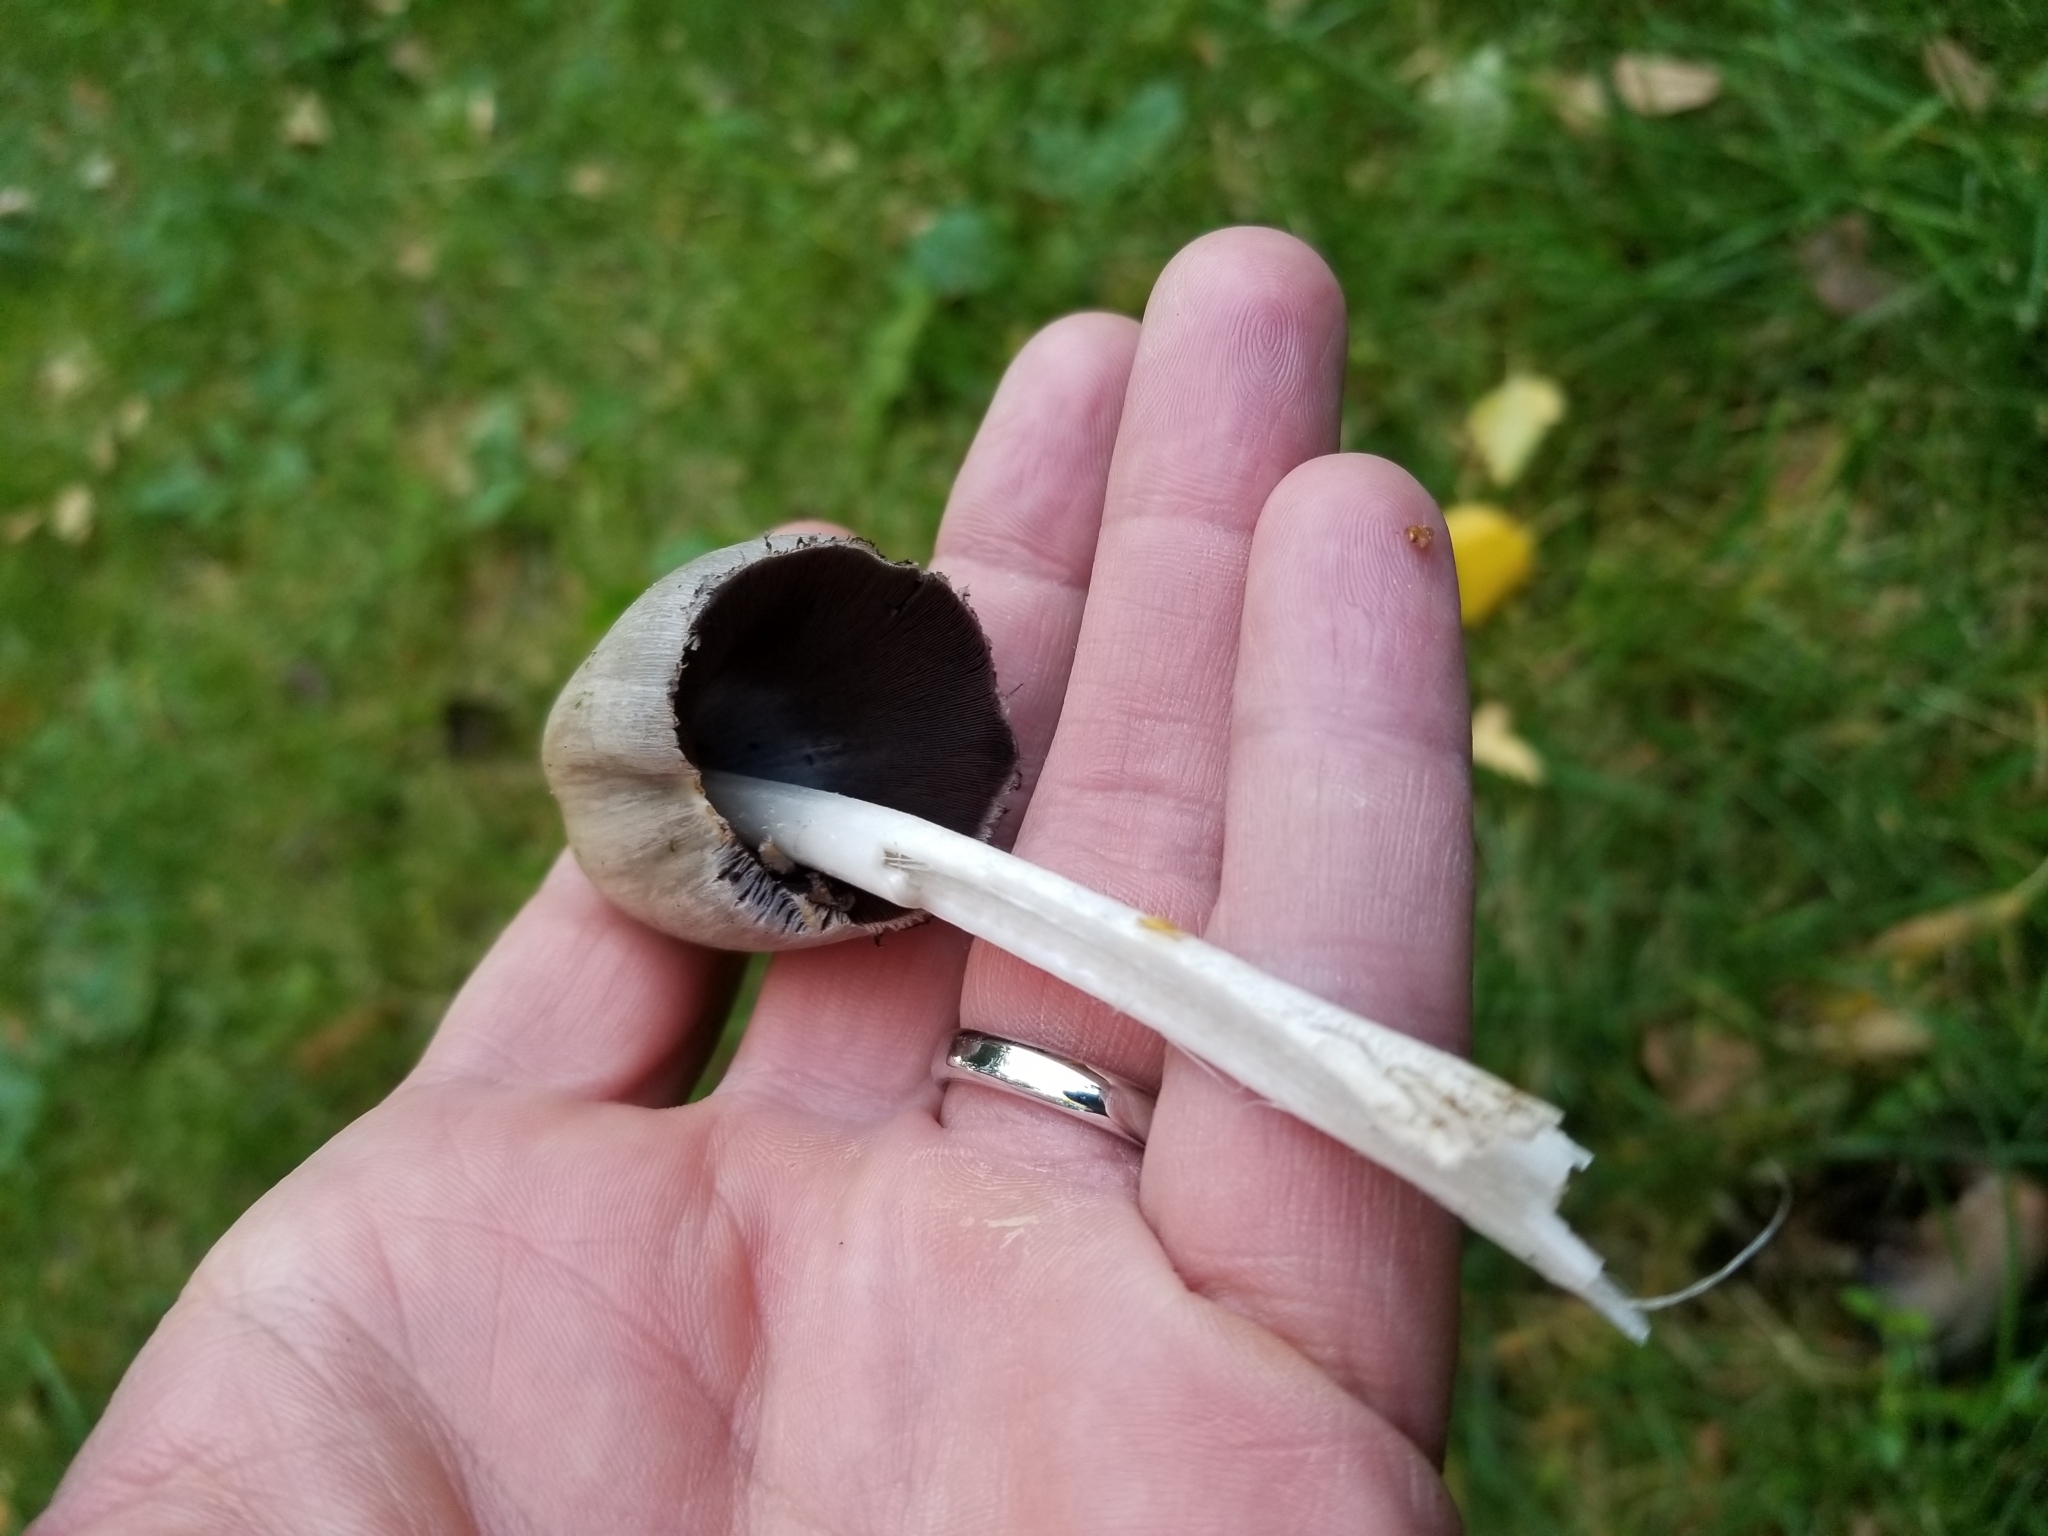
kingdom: Fungi
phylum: Basidiomycota
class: Agaricomycetes
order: Agaricales
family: Psathyrellaceae
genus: Coprinopsis
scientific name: Coprinopsis atramentaria
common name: Common ink-cap
